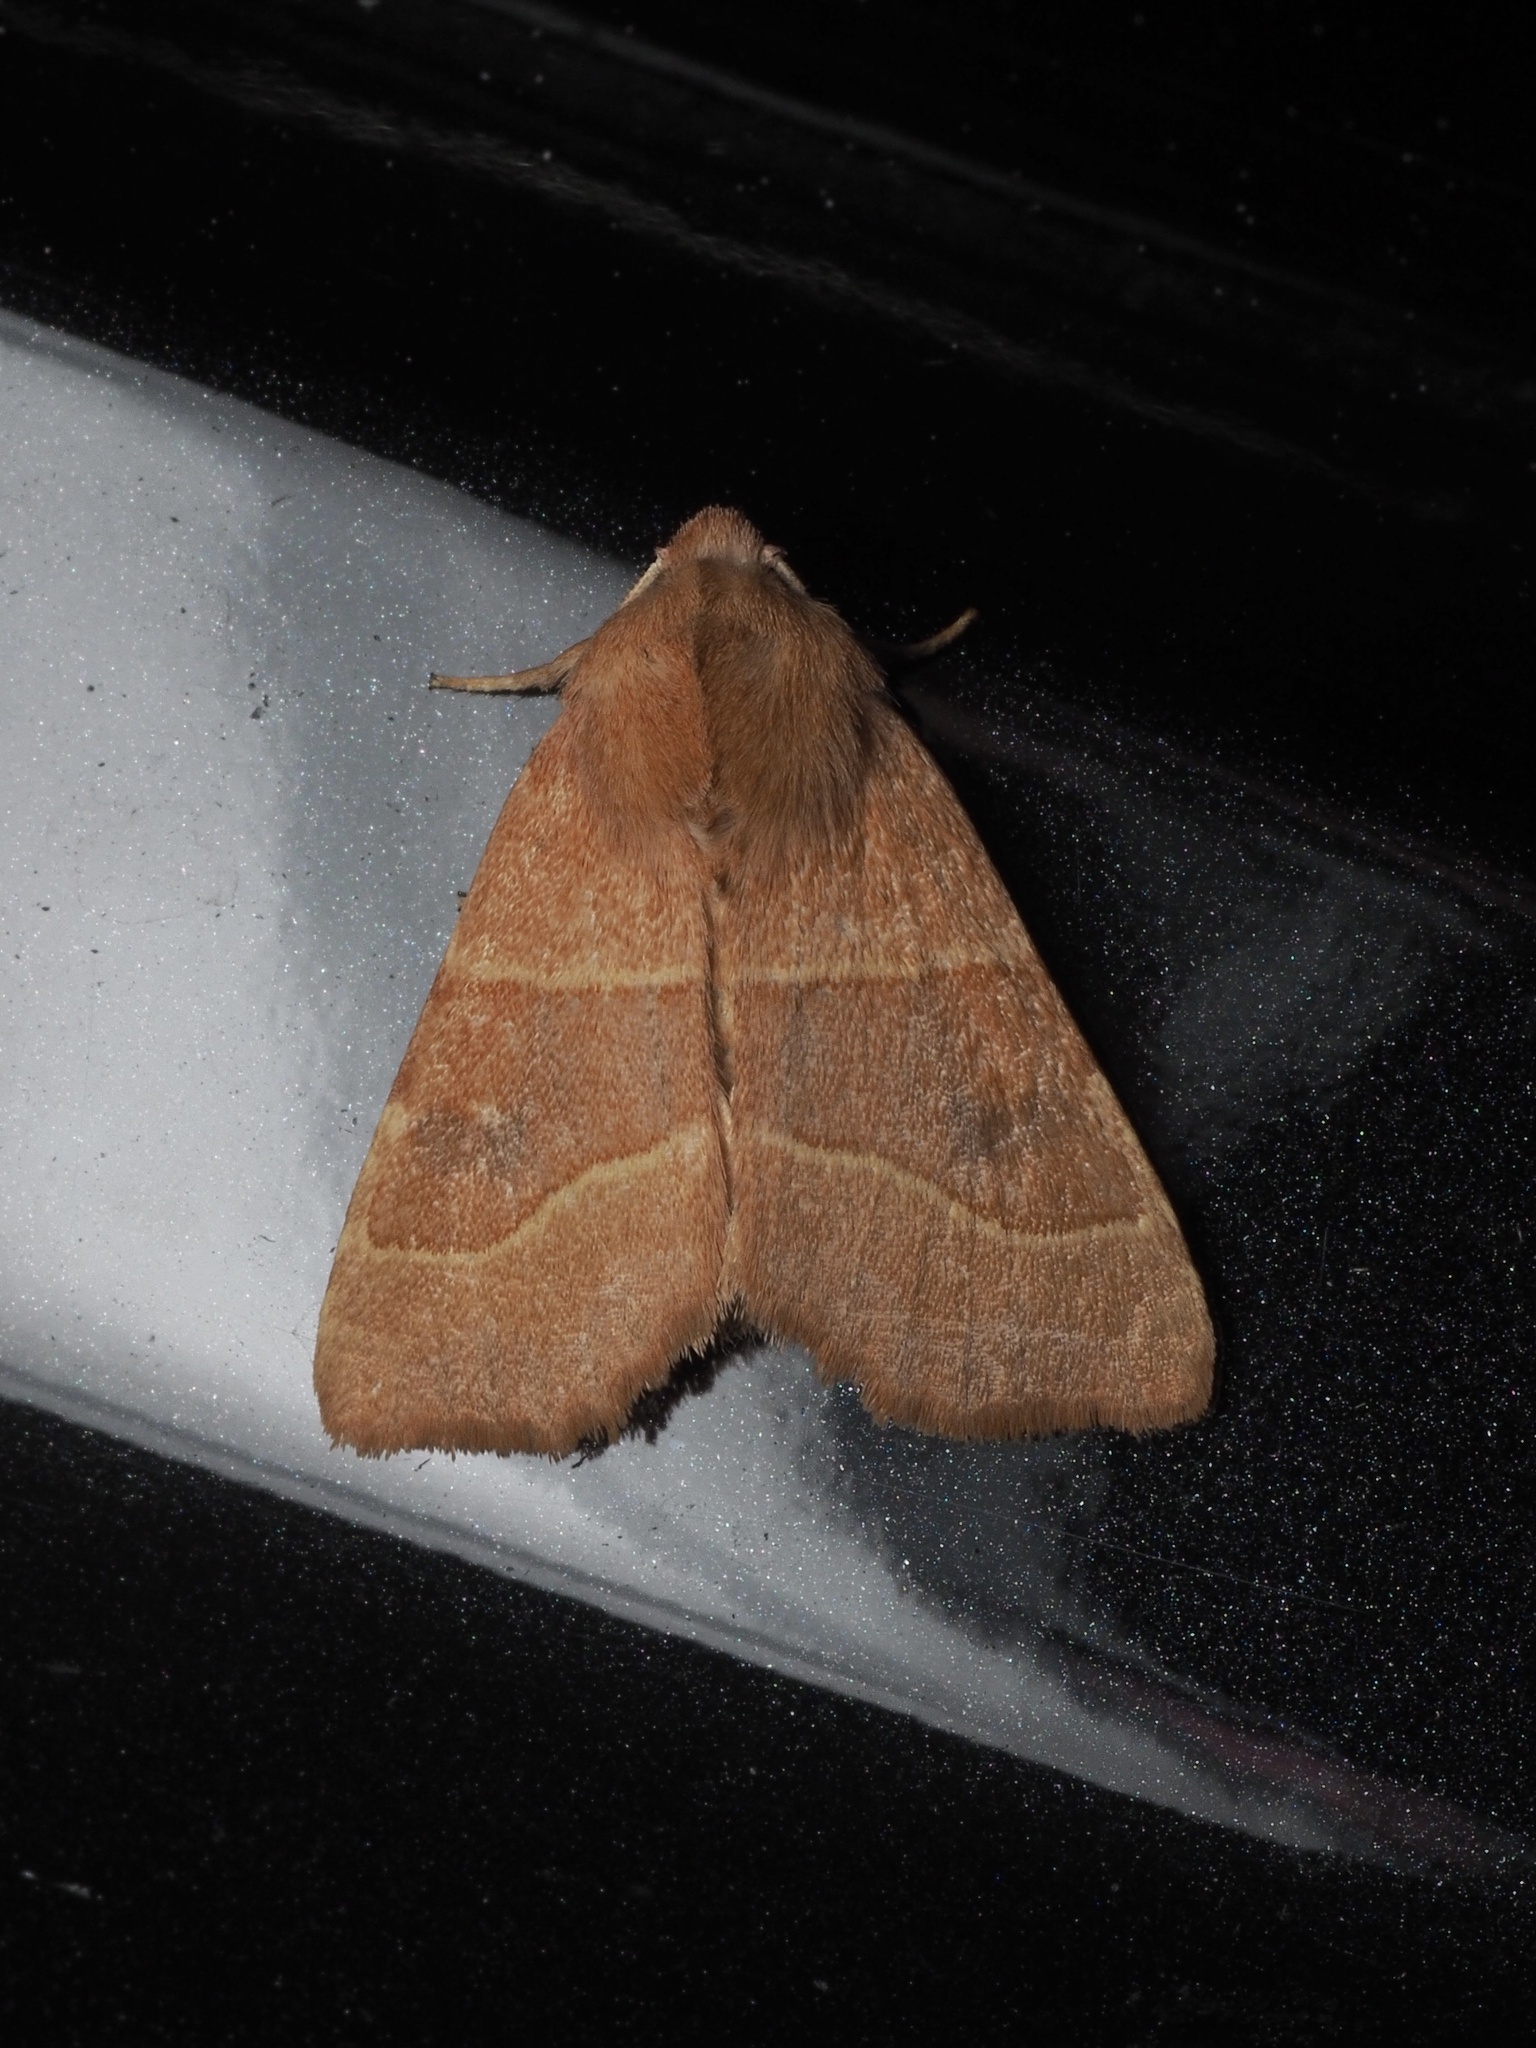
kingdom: Animalia
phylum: Arthropoda
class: Insecta
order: Lepidoptera
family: Noctuidae
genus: Atethmia
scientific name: Atethmia centrago
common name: Centre-barred sallow
